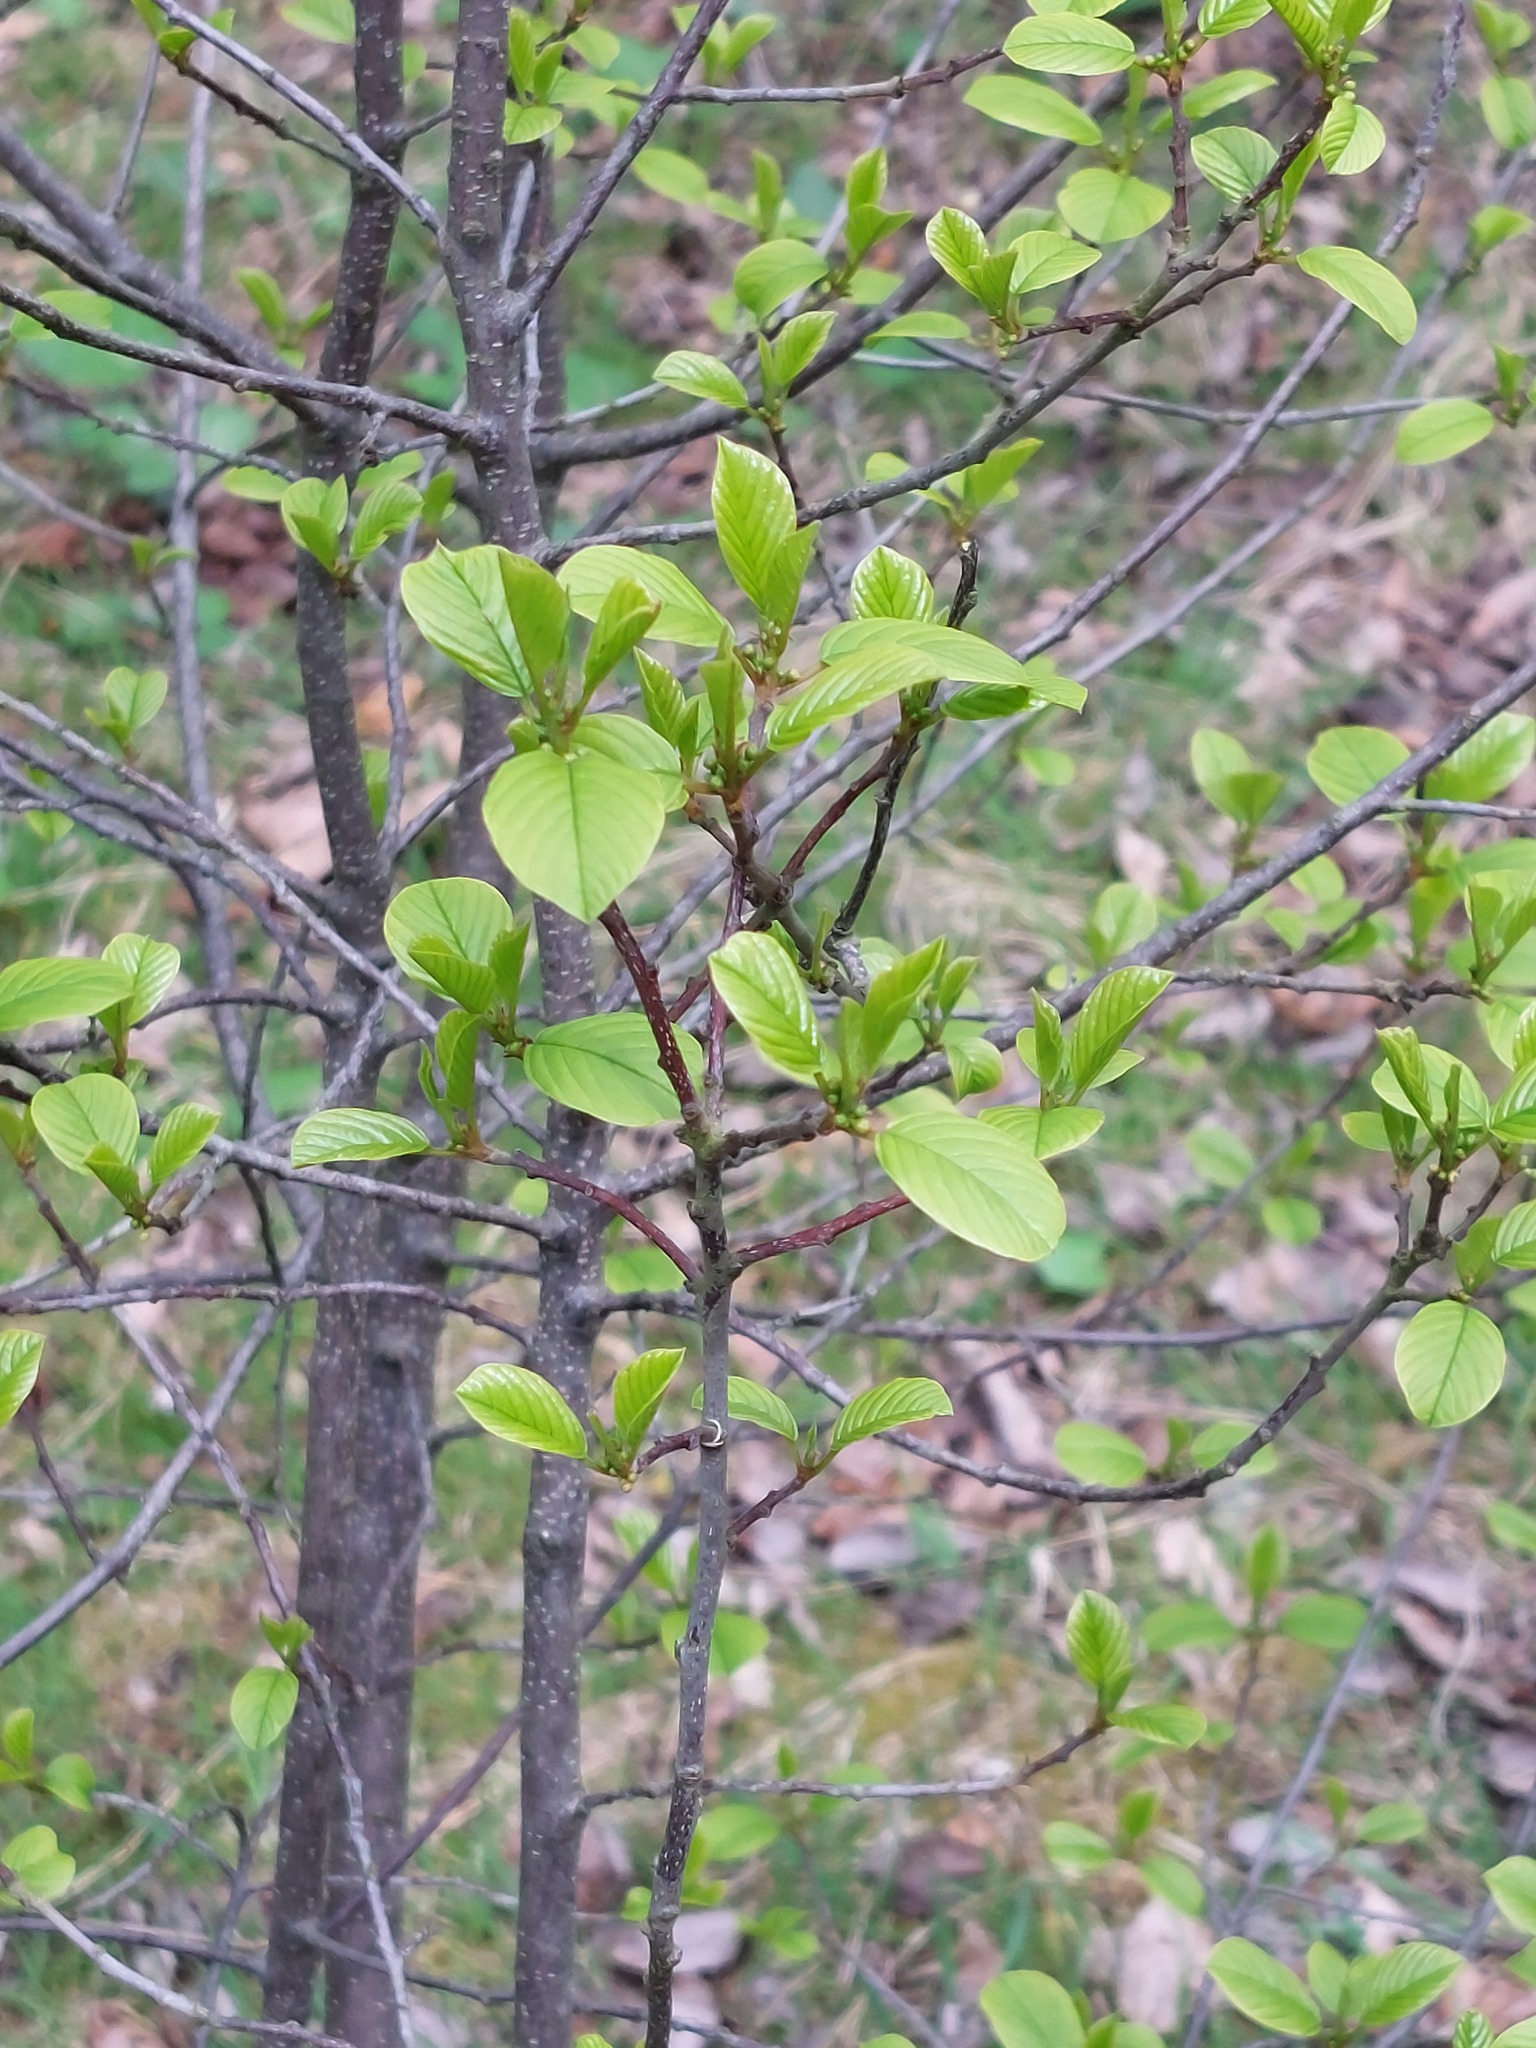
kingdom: Plantae
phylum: Tracheophyta
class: Magnoliopsida
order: Rosales
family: Rhamnaceae
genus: Frangula
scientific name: Frangula alnus
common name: Alder buckthorn
